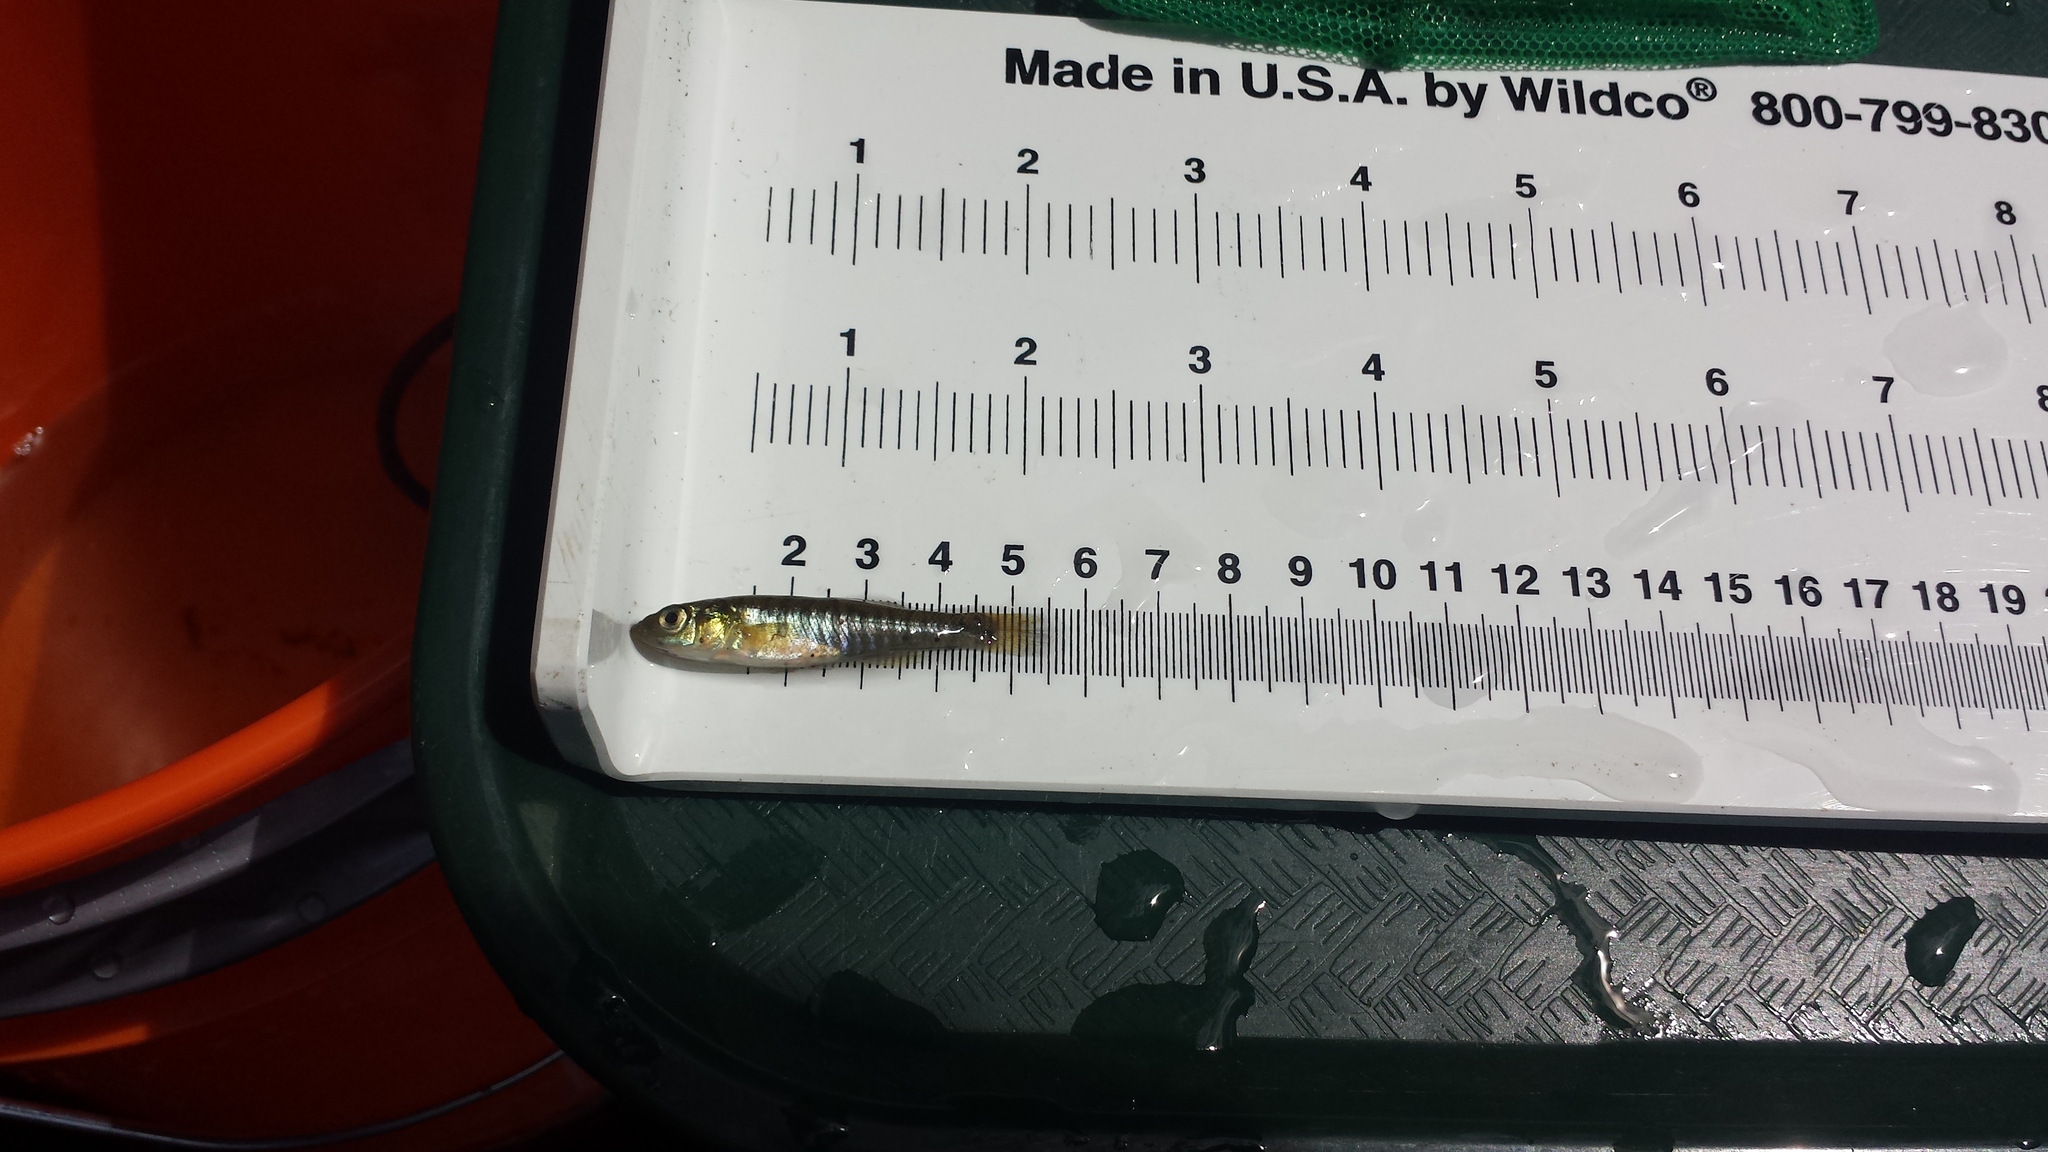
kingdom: Animalia
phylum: Chordata
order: Cyprinodontiformes
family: Fundulidae
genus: Fundulus
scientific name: Fundulus diaphanus
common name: Banded killifish
